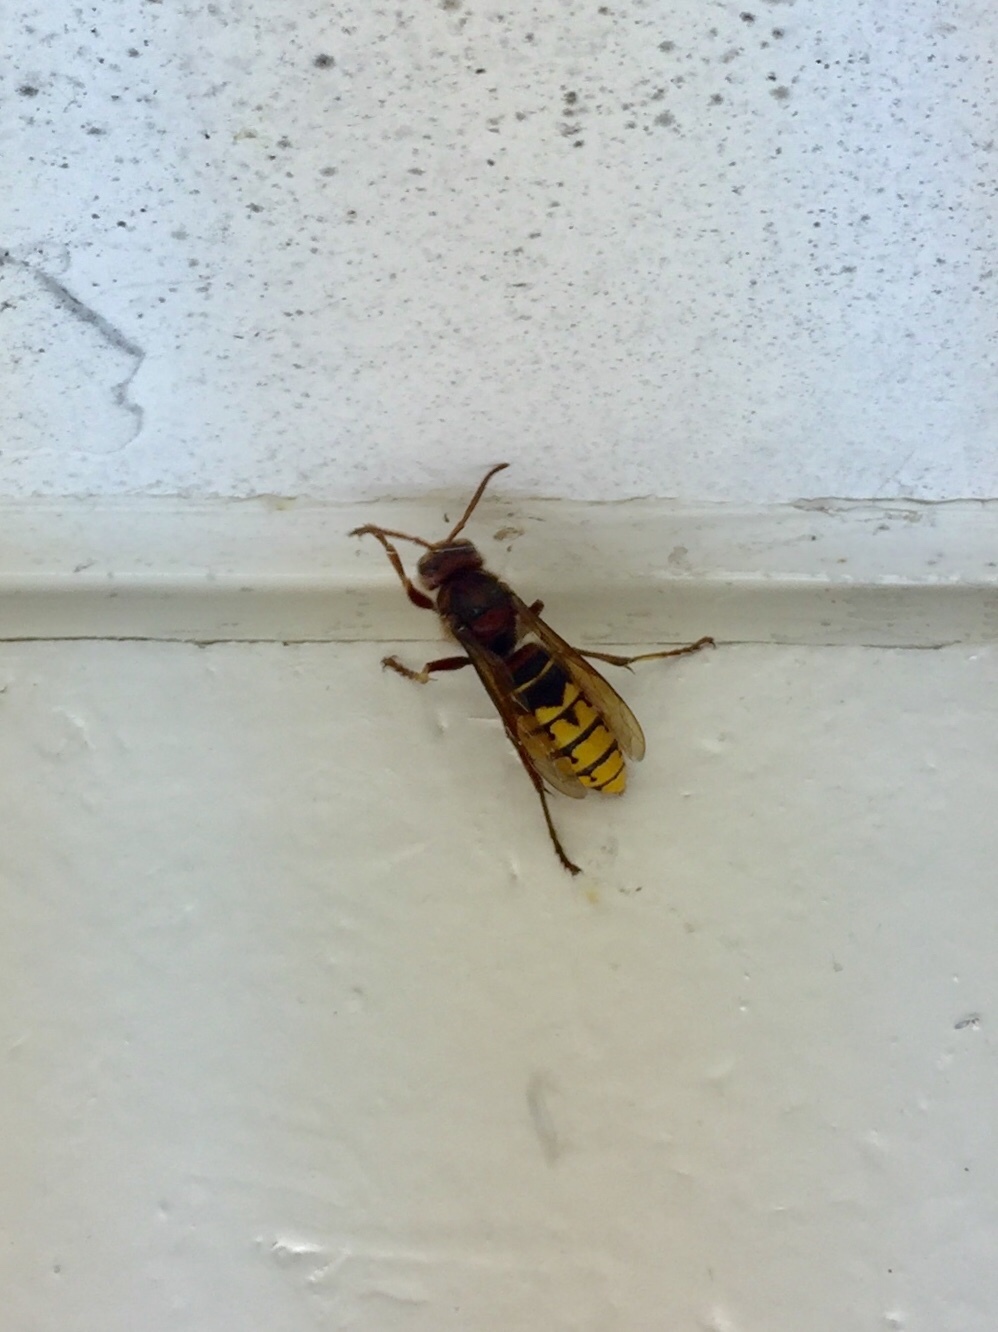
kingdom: Animalia
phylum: Arthropoda
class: Insecta
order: Hymenoptera
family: Vespidae
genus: Vespa
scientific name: Vespa crabro
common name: Hornet
